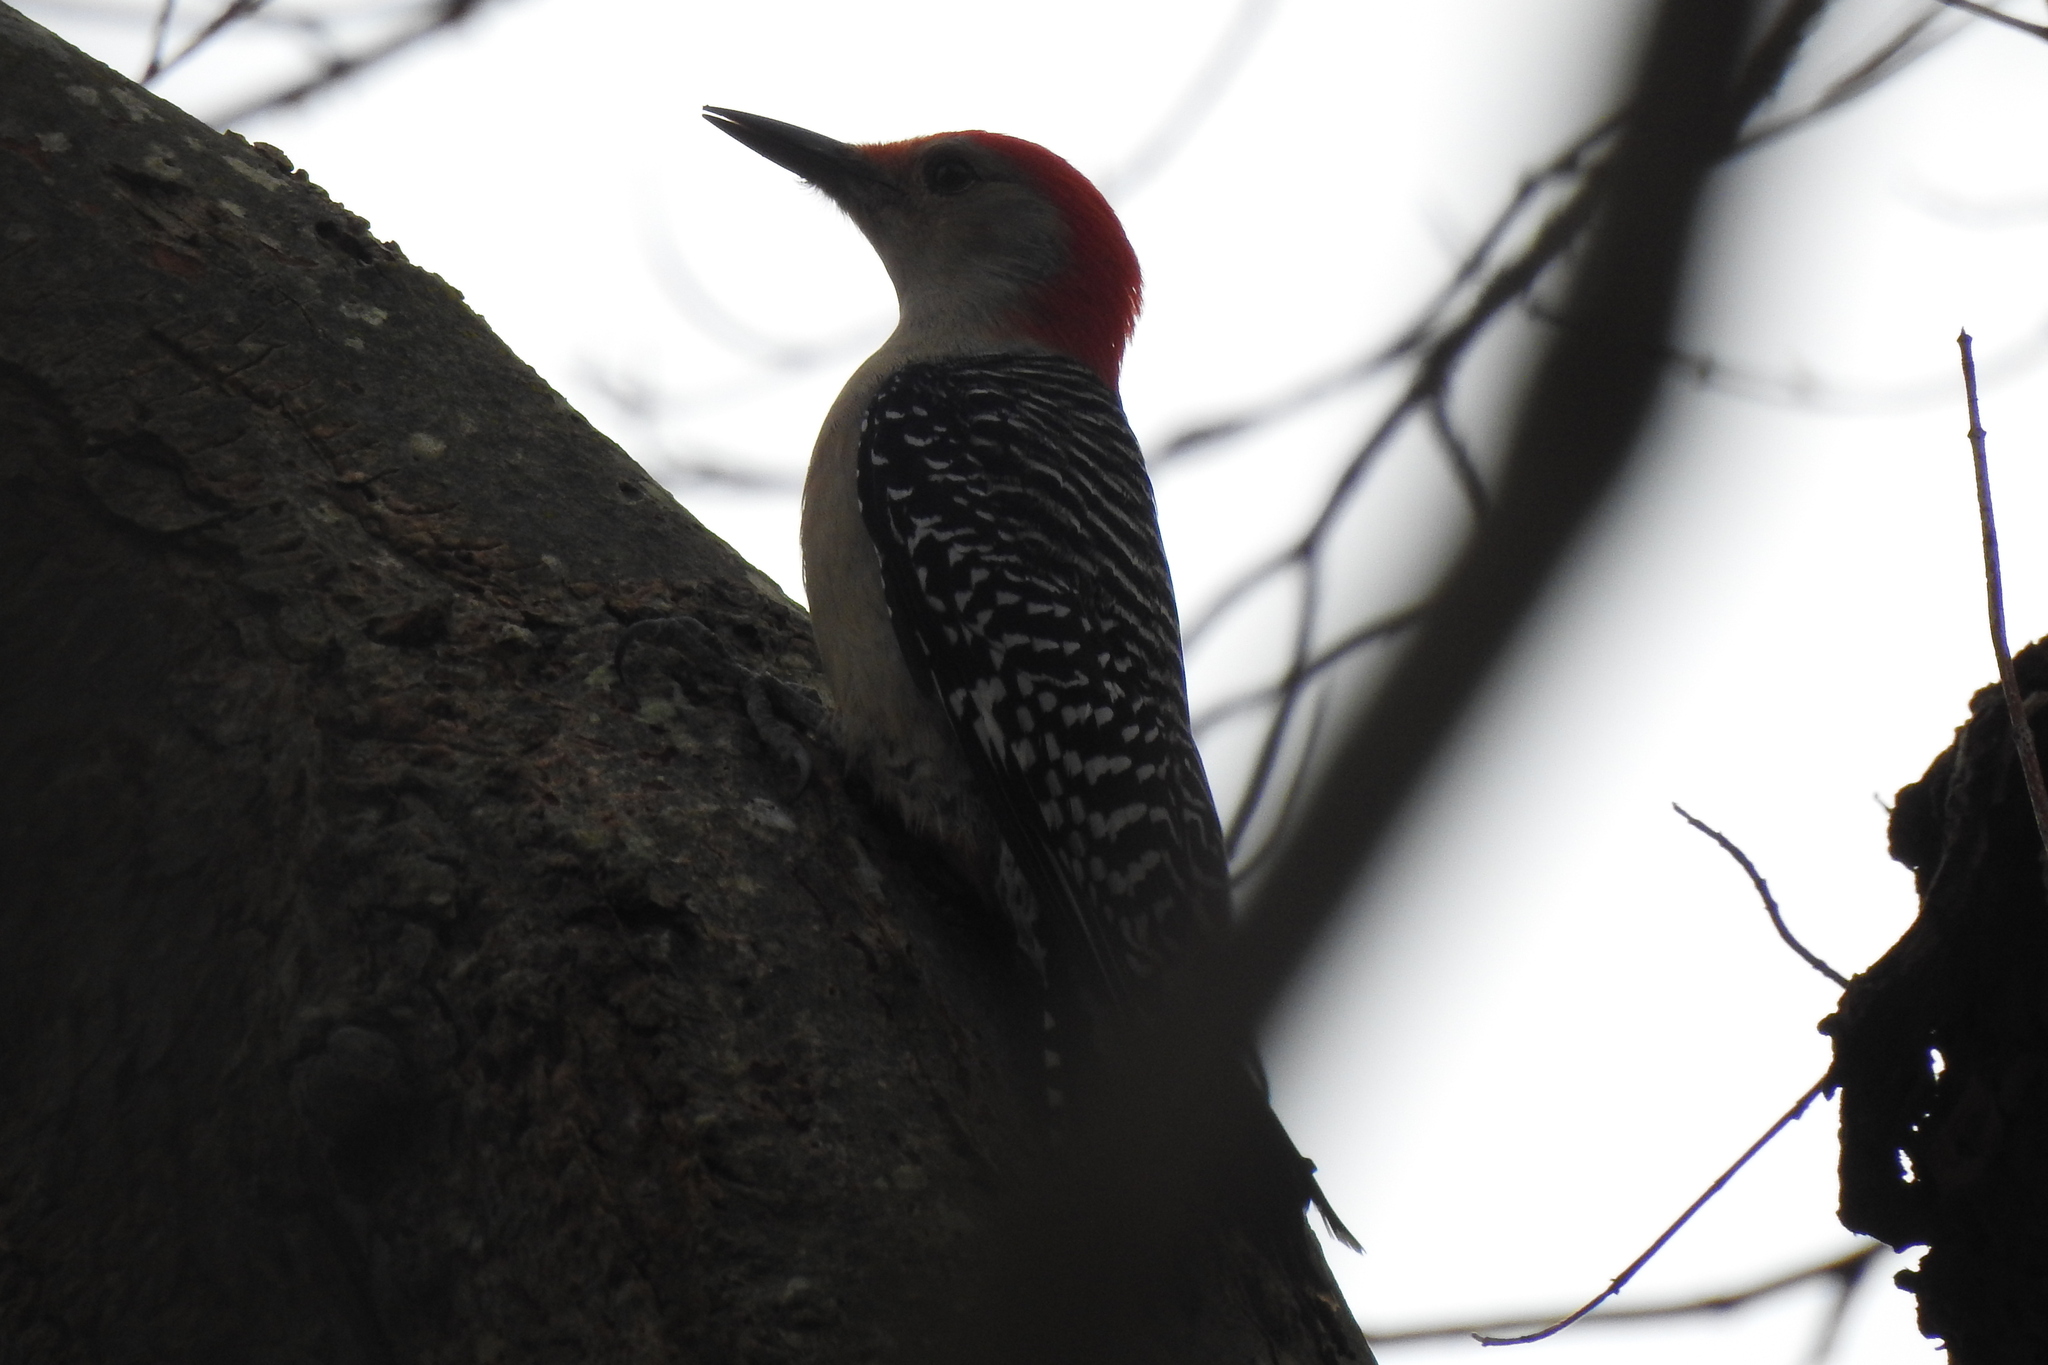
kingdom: Animalia
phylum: Chordata
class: Aves
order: Piciformes
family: Picidae
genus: Melanerpes
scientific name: Melanerpes carolinus
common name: Red-bellied woodpecker
